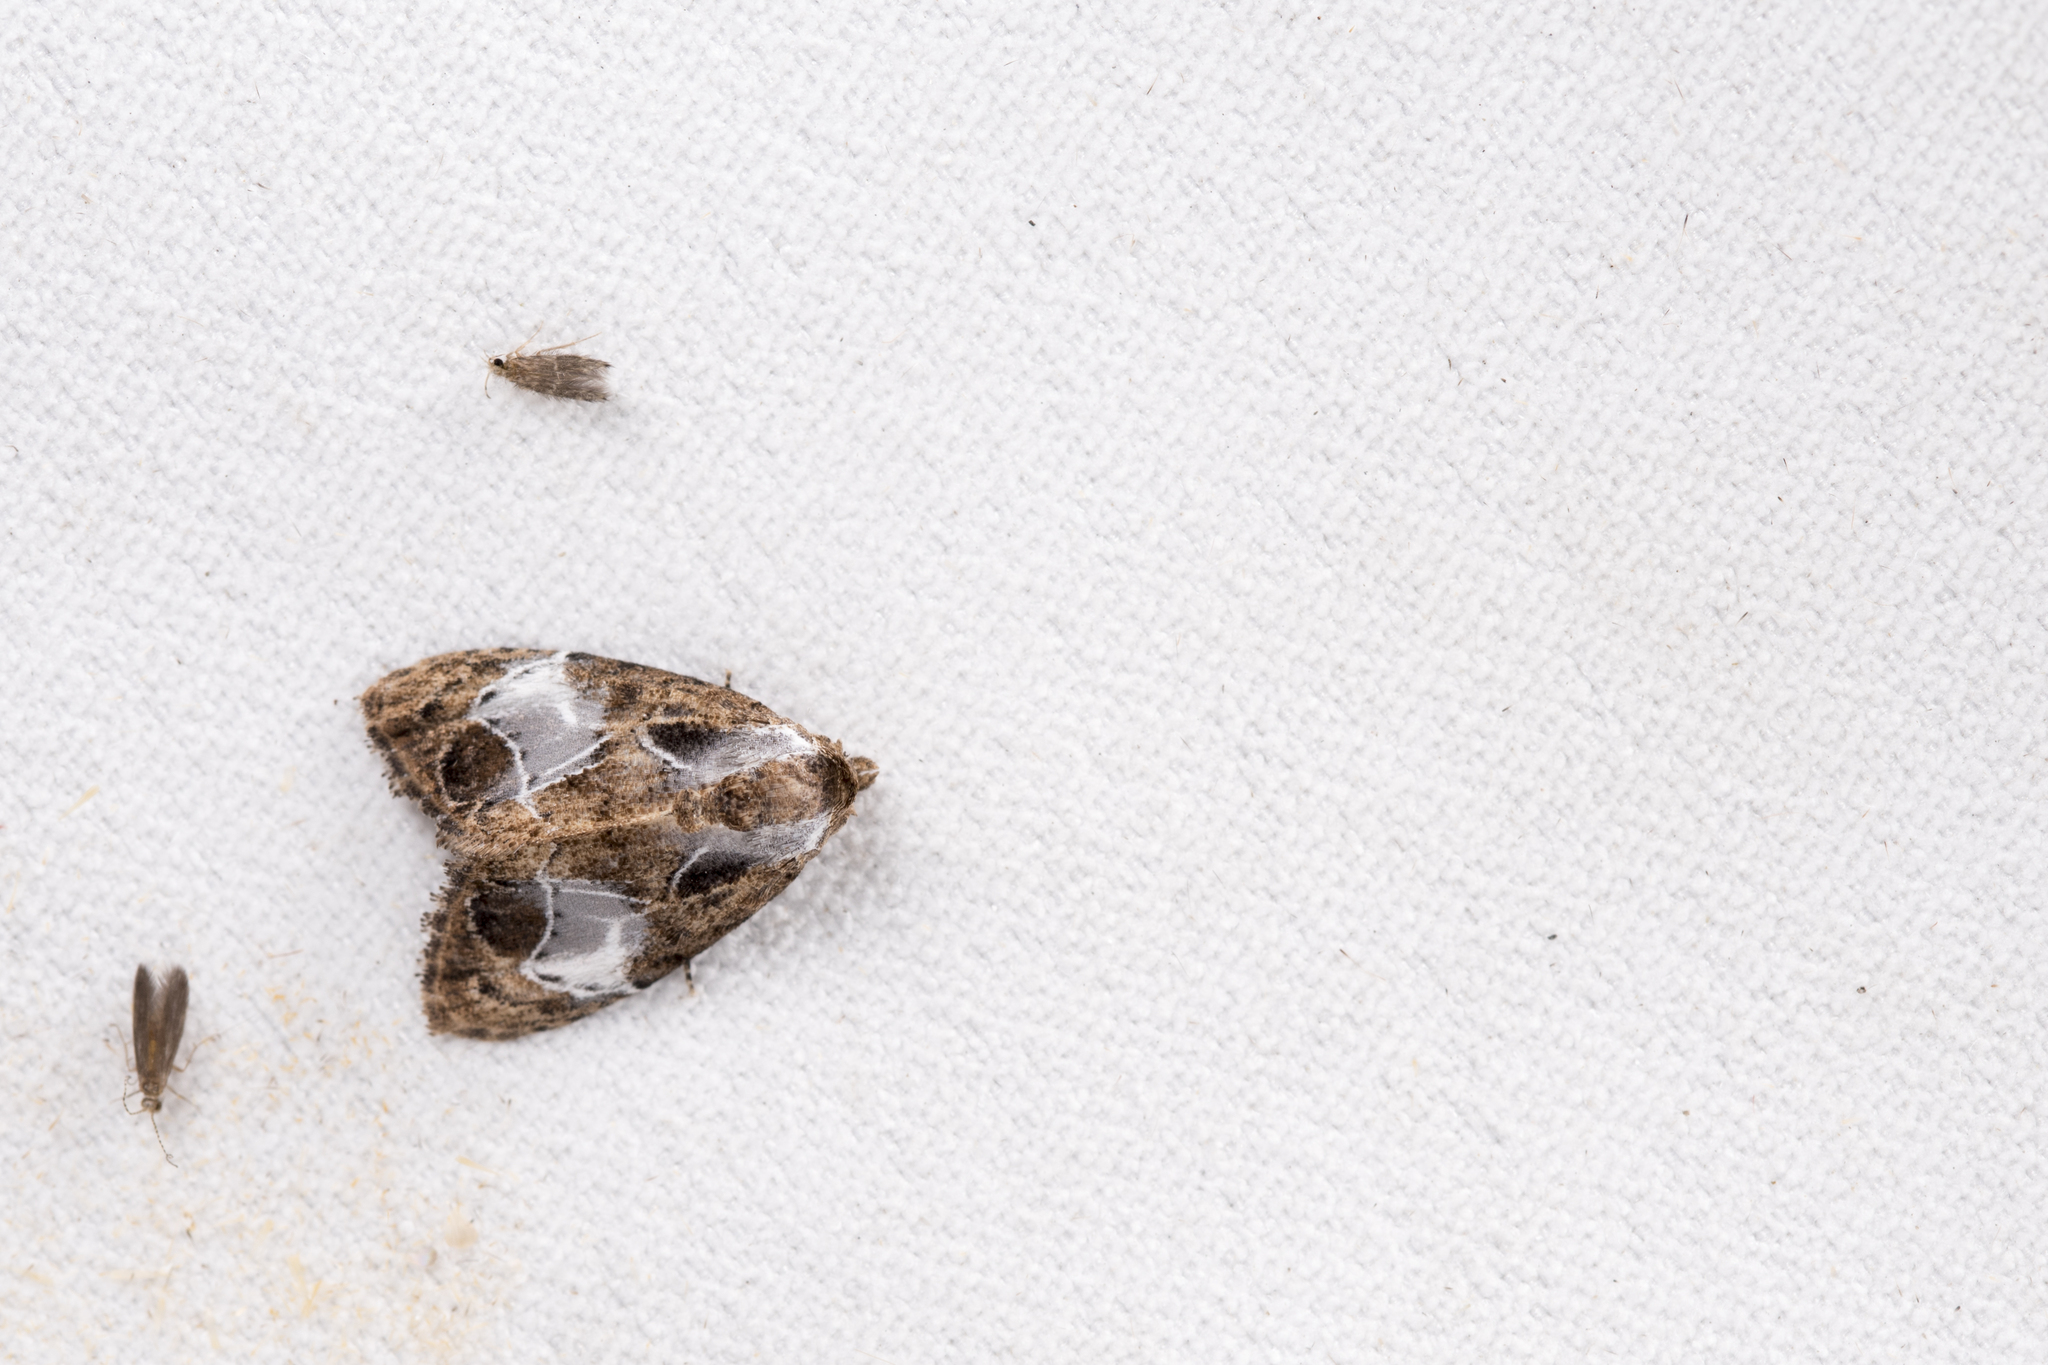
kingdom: Animalia
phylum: Arthropoda
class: Insecta
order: Lepidoptera
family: Nolidae
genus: Evonima
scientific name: Evonima aperta
